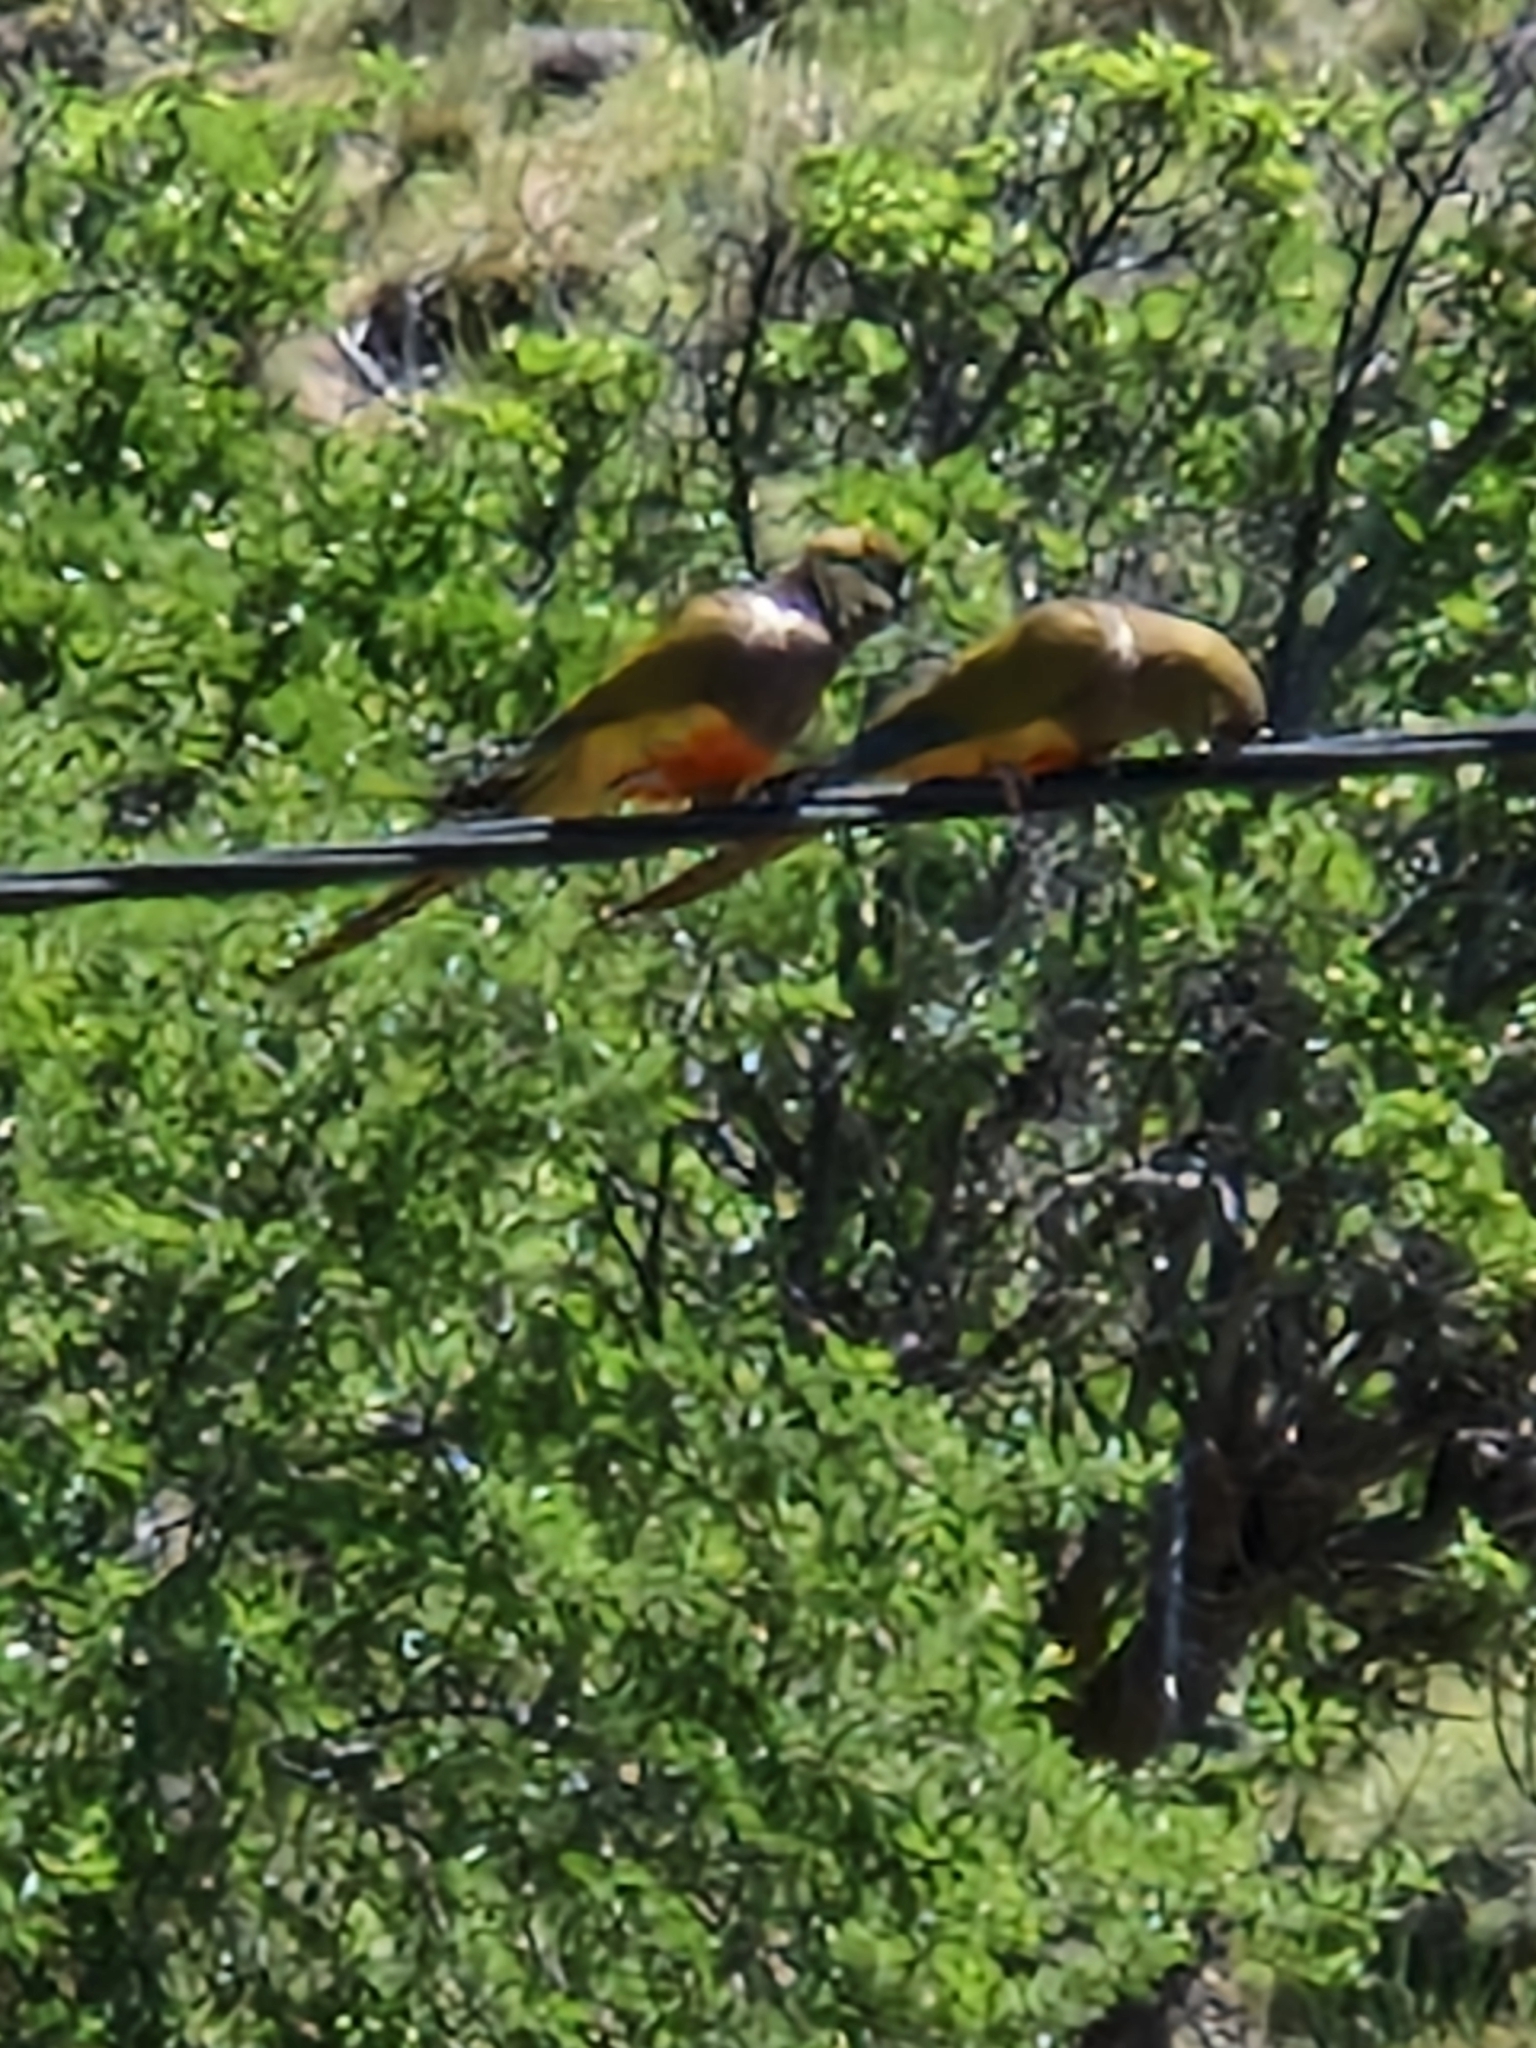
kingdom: Animalia
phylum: Chordata
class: Aves
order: Psittaciformes
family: Psittacidae
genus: Cyanoliseus
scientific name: Cyanoliseus patagonus
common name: Burrowing parrot
